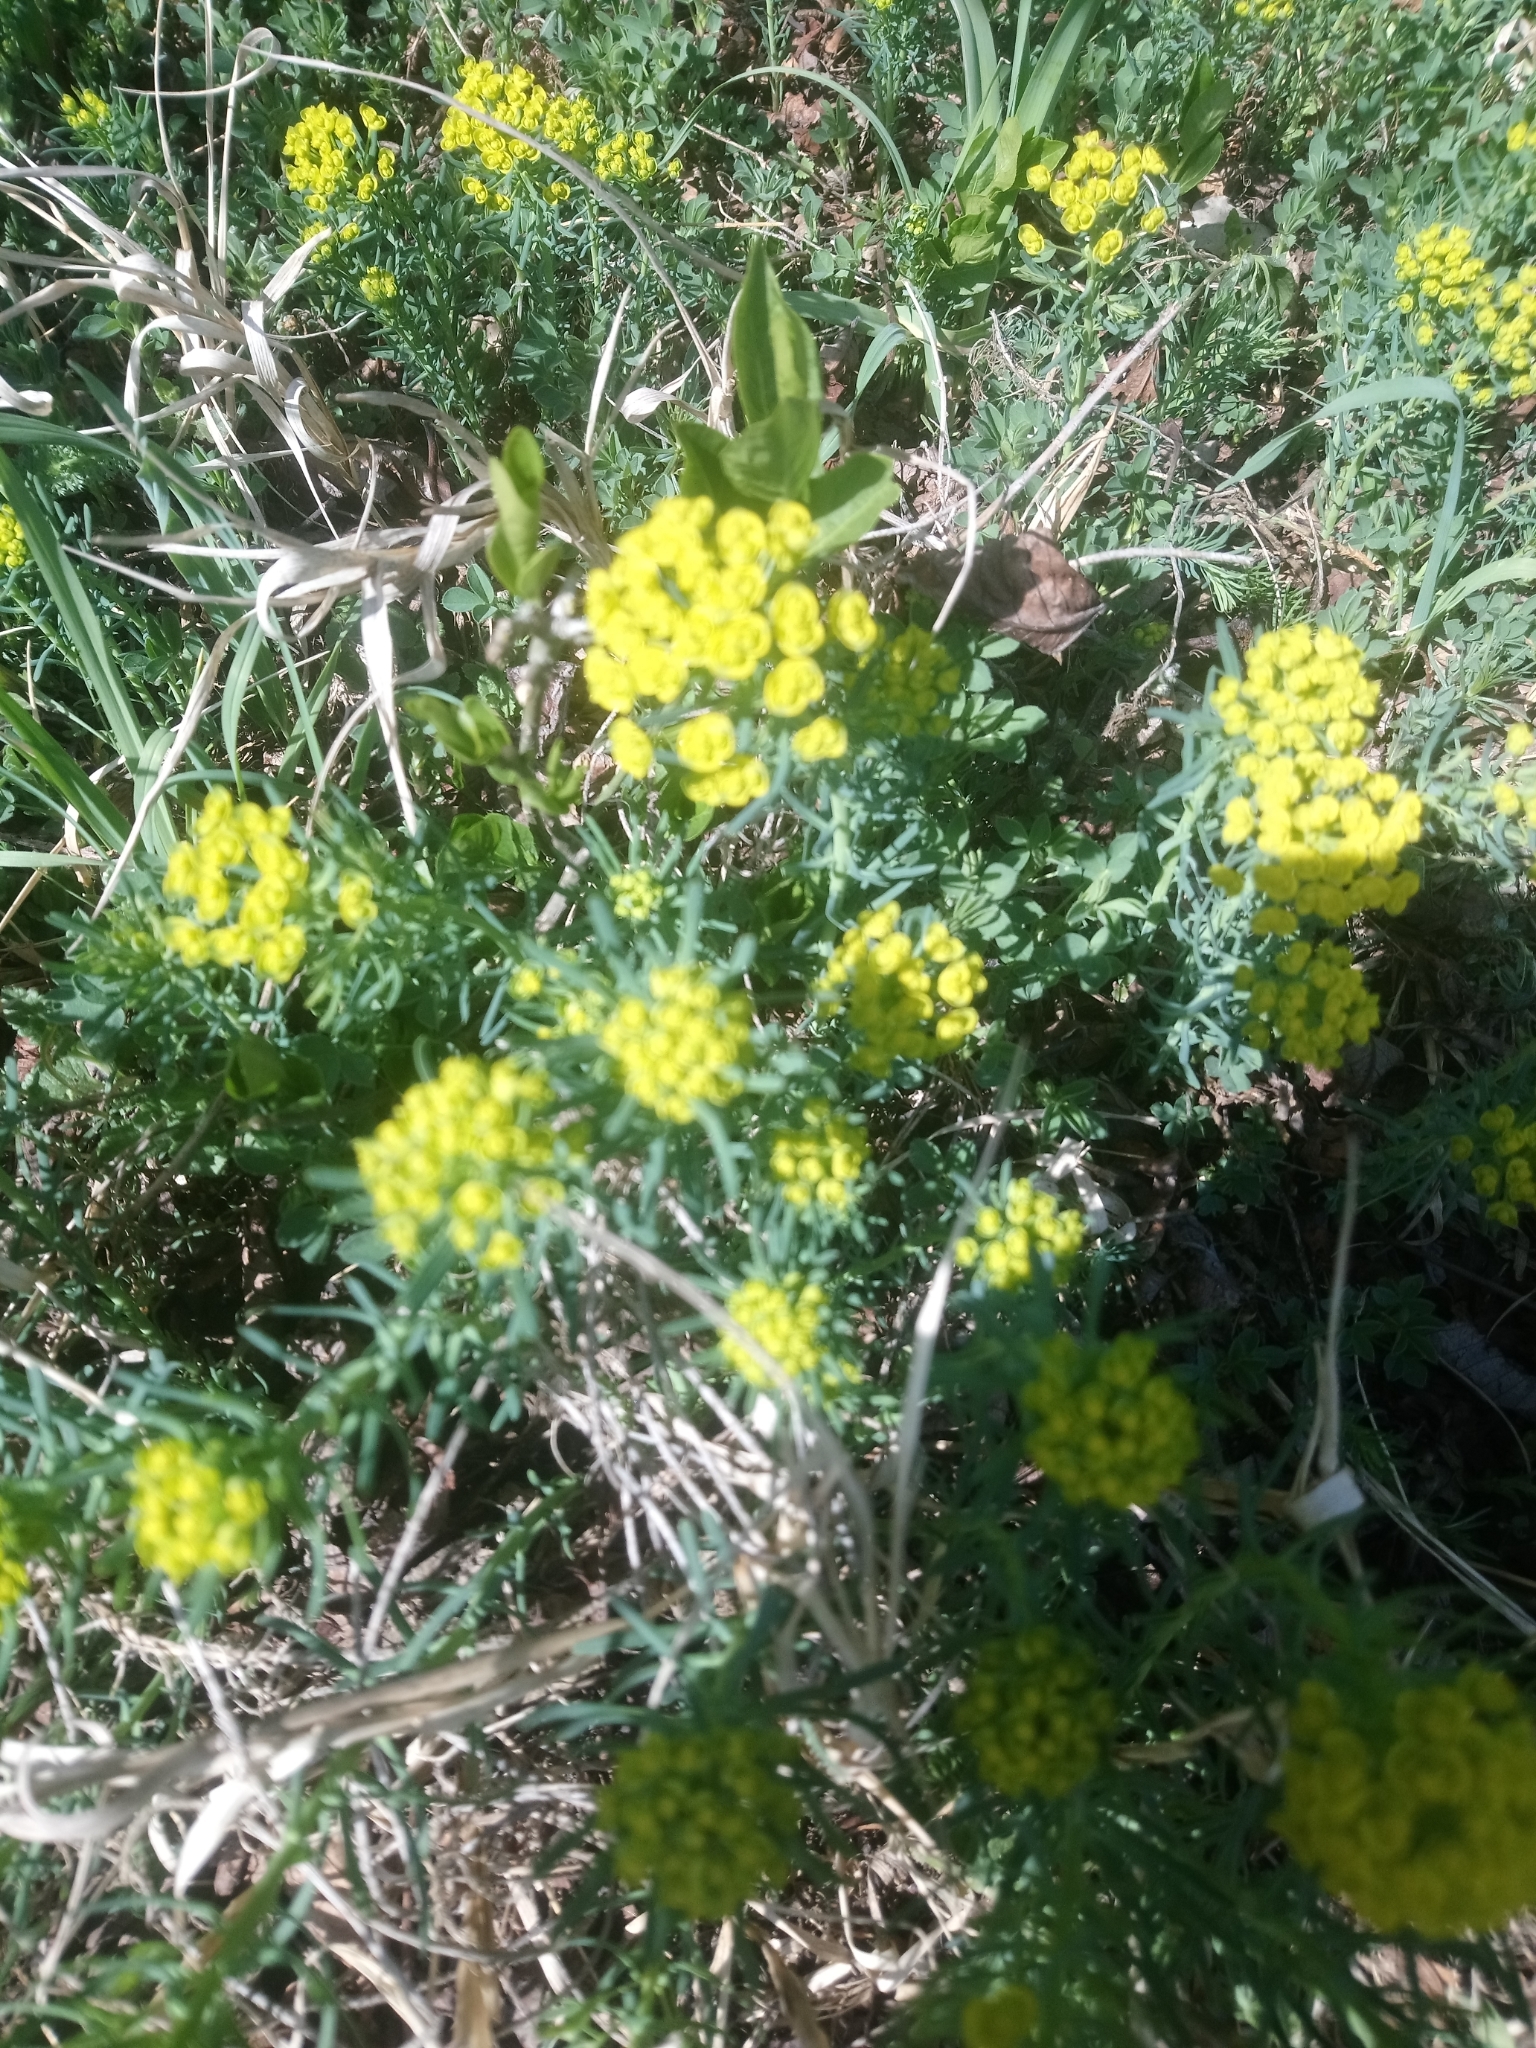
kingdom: Plantae
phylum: Tracheophyta
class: Magnoliopsida
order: Malpighiales
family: Euphorbiaceae
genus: Euphorbia
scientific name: Euphorbia cyparissias
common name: Cypress spurge
